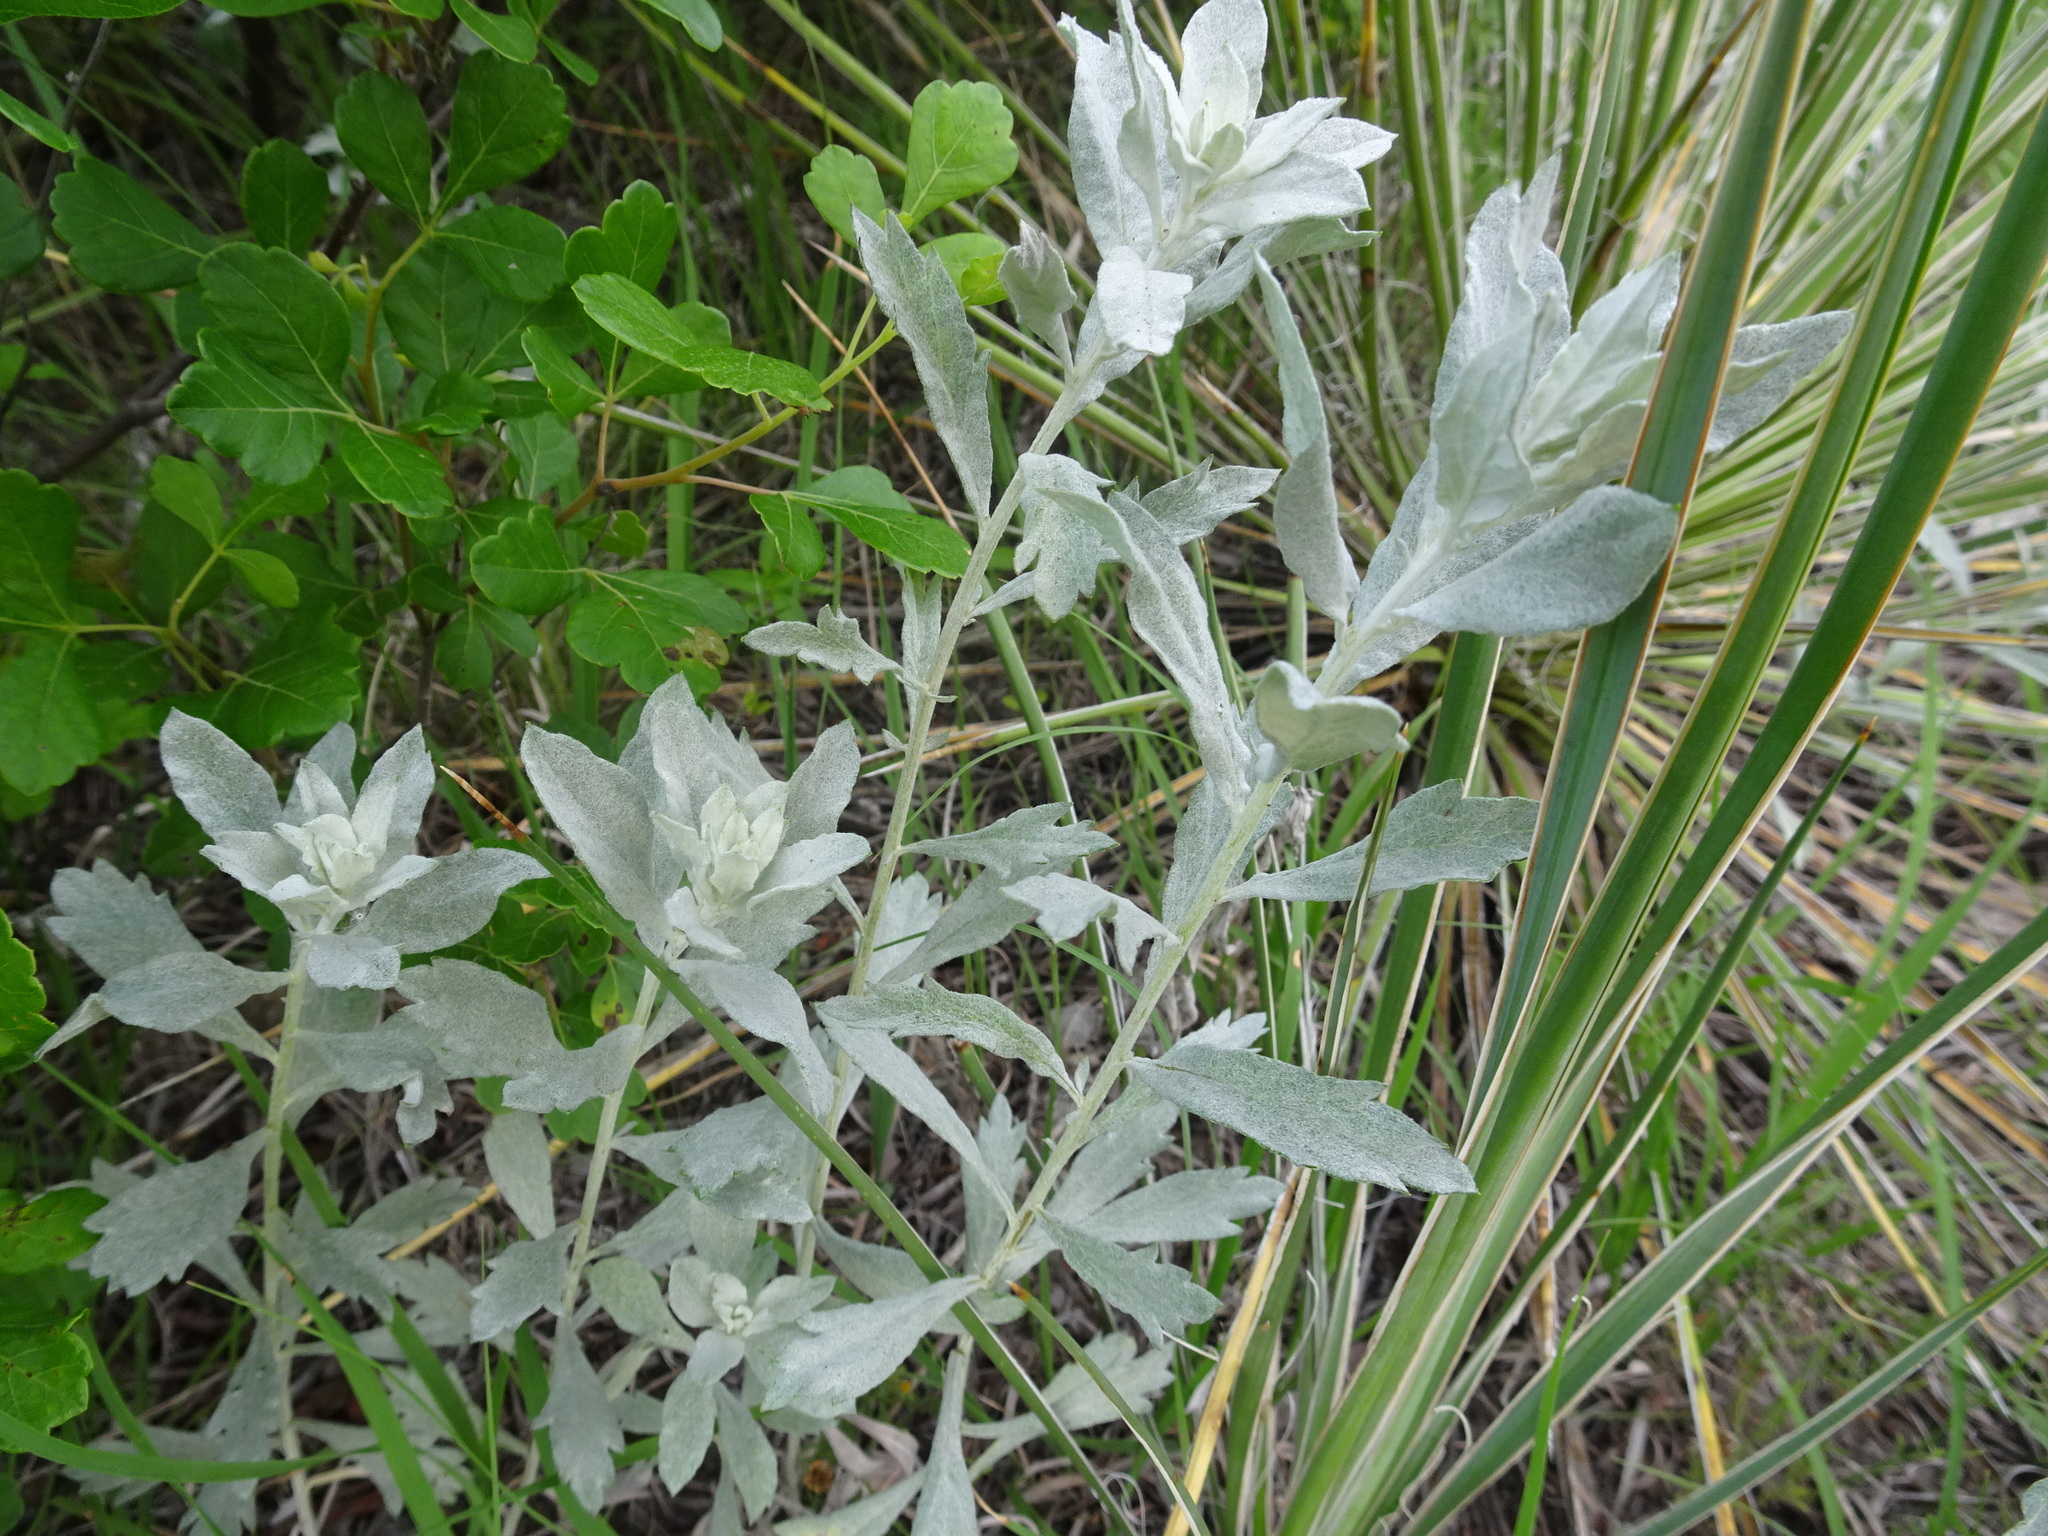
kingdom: Plantae
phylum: Tracheophyta
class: Magnoliopsida
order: Asterales
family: Asteraceae
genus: Artemisia
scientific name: Artemisia ludoviciana
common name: Western mugwort
